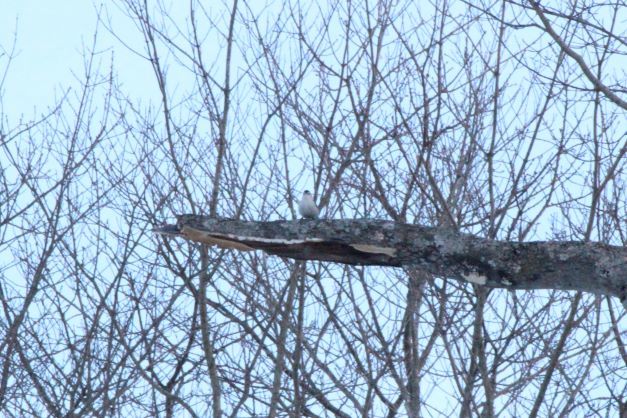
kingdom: Animalia
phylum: Chordata
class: Aves
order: Passeriformes
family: Sittidae
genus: Sitta
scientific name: Sitta carolinensis
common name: White-breasted nuthatch
